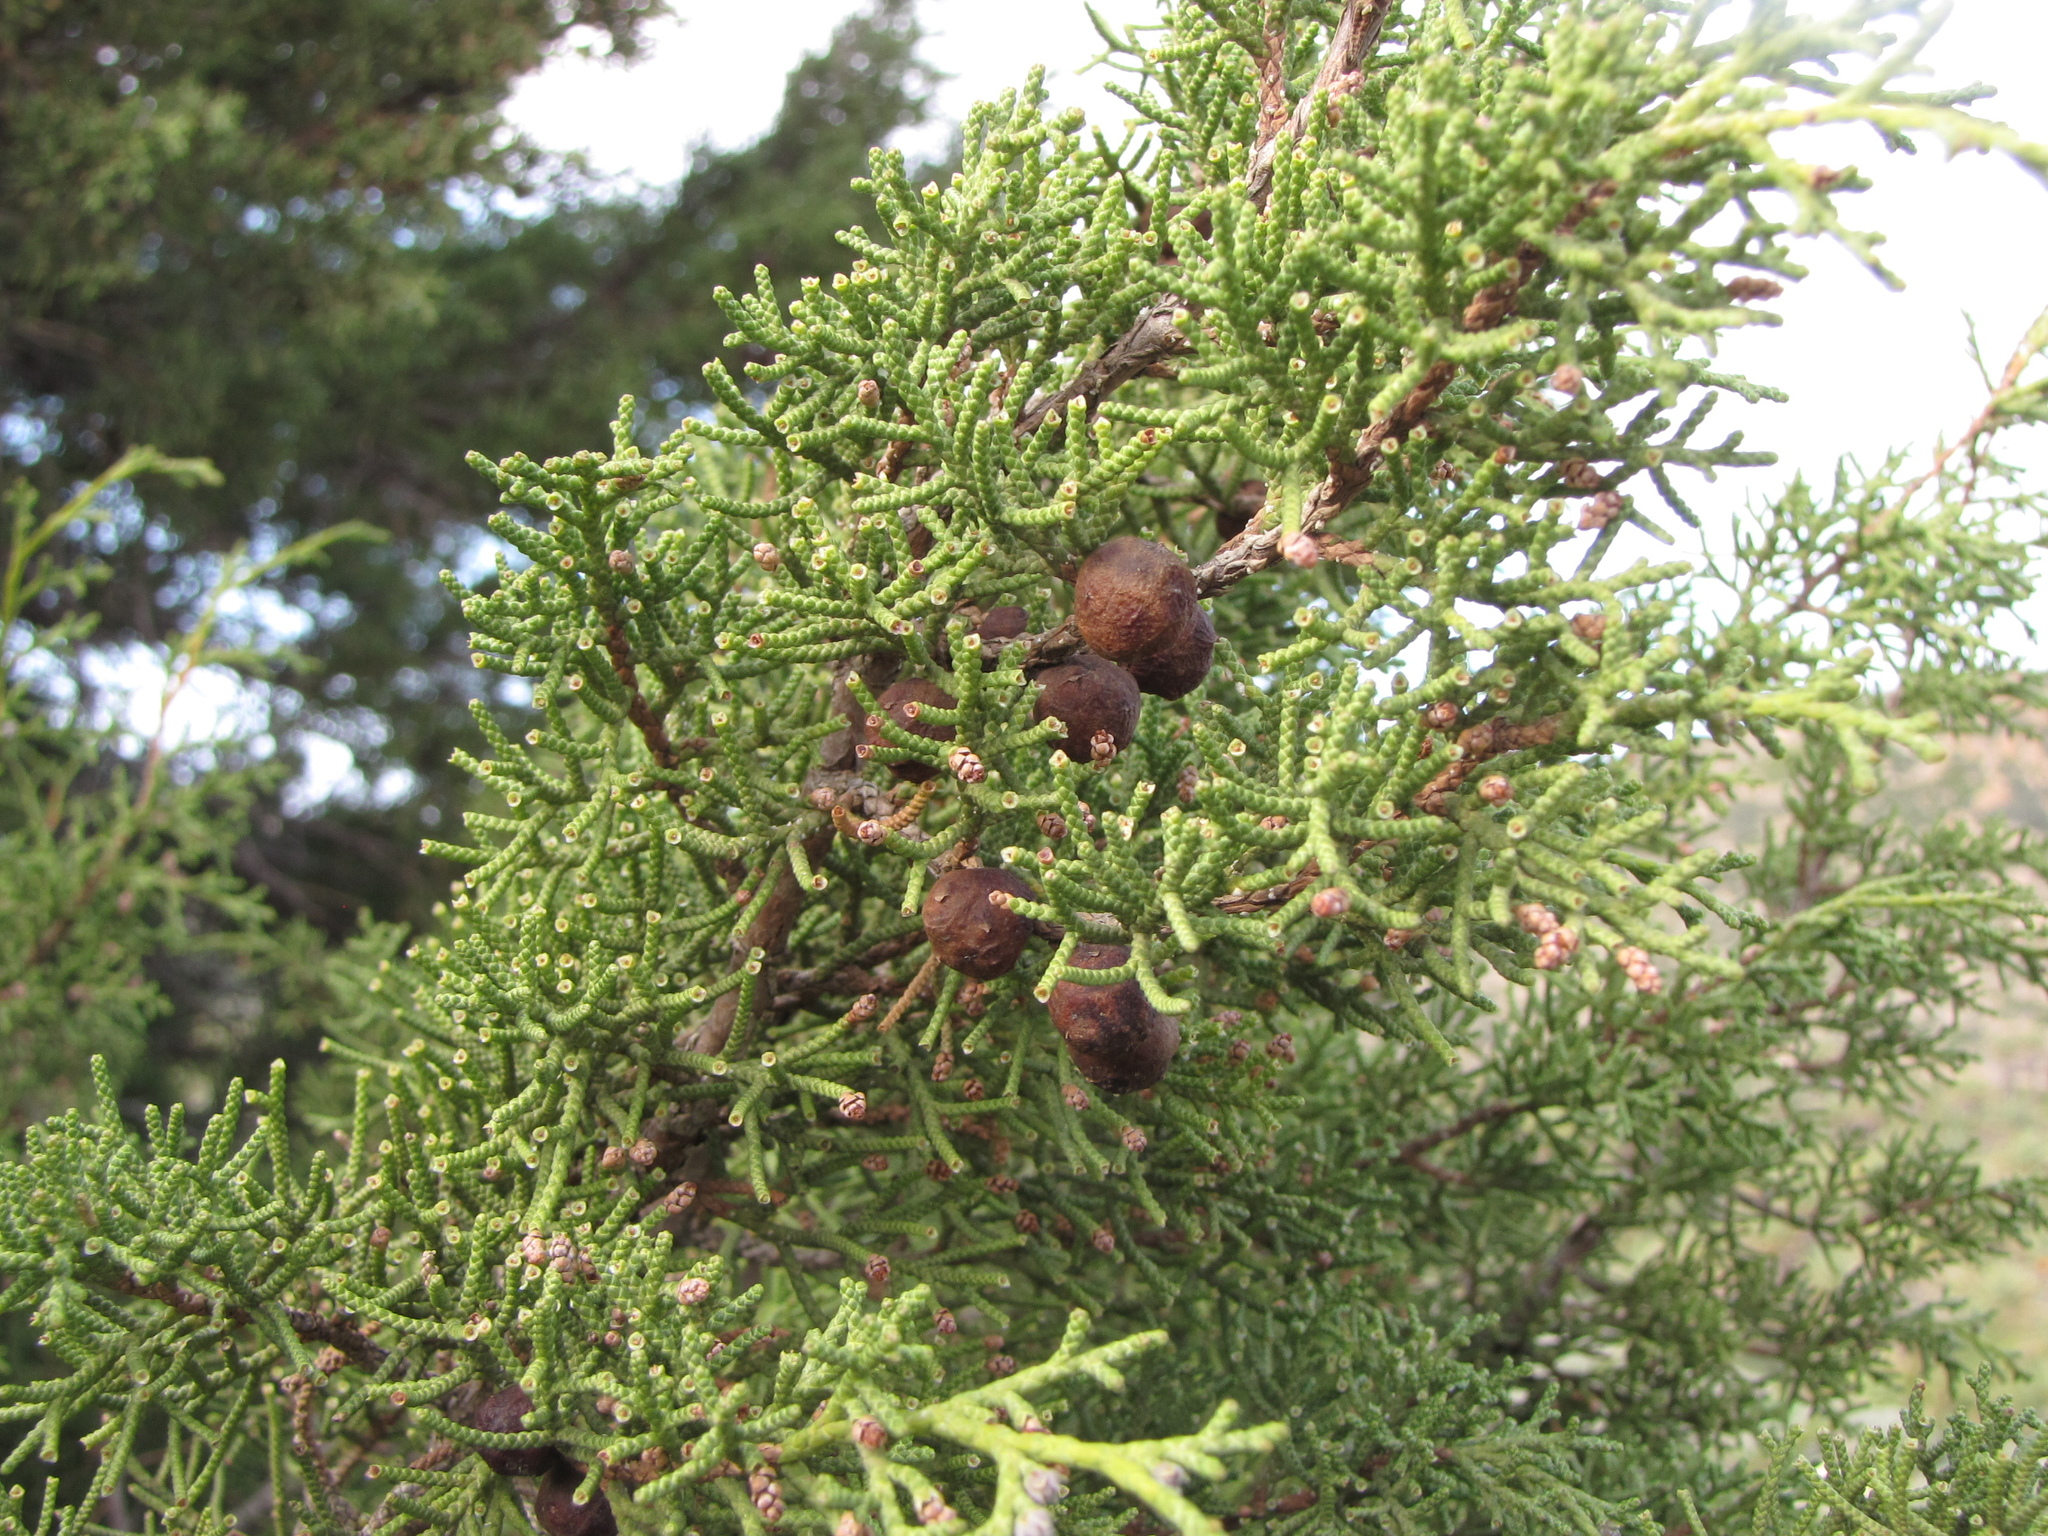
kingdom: Plantae
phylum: Tracheophyta
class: Pinopsida
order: Pinales
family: Cupressaceae
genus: Juniperus
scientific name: Juniperus phoenicea
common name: Phoenician juniper
